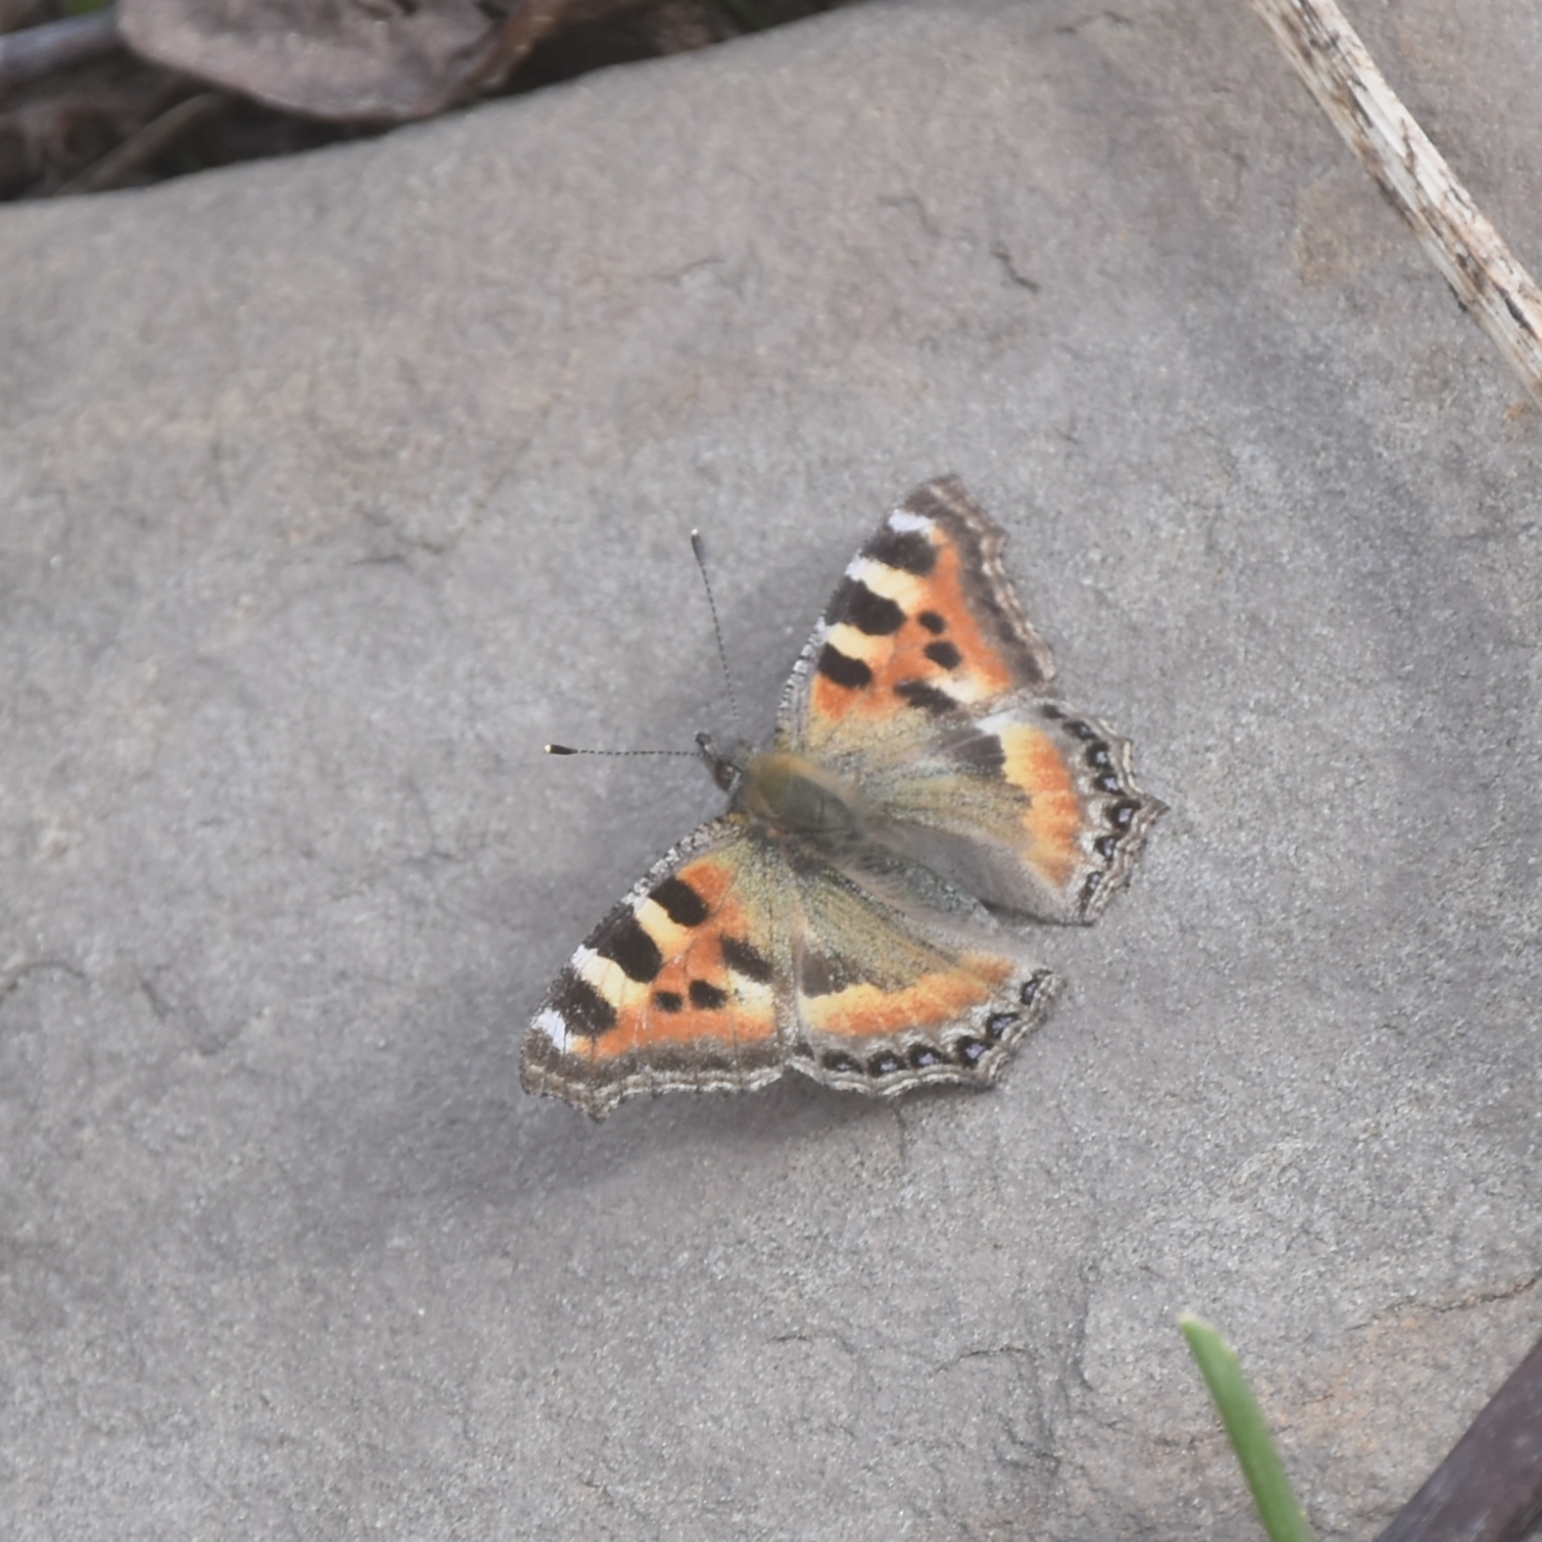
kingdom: Animalia
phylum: Arthropoda
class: Insecta
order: Lepidoptera
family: Nymphalidae
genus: Aglais
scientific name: Aglais caschmirensis
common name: Indian tortoiseshell
